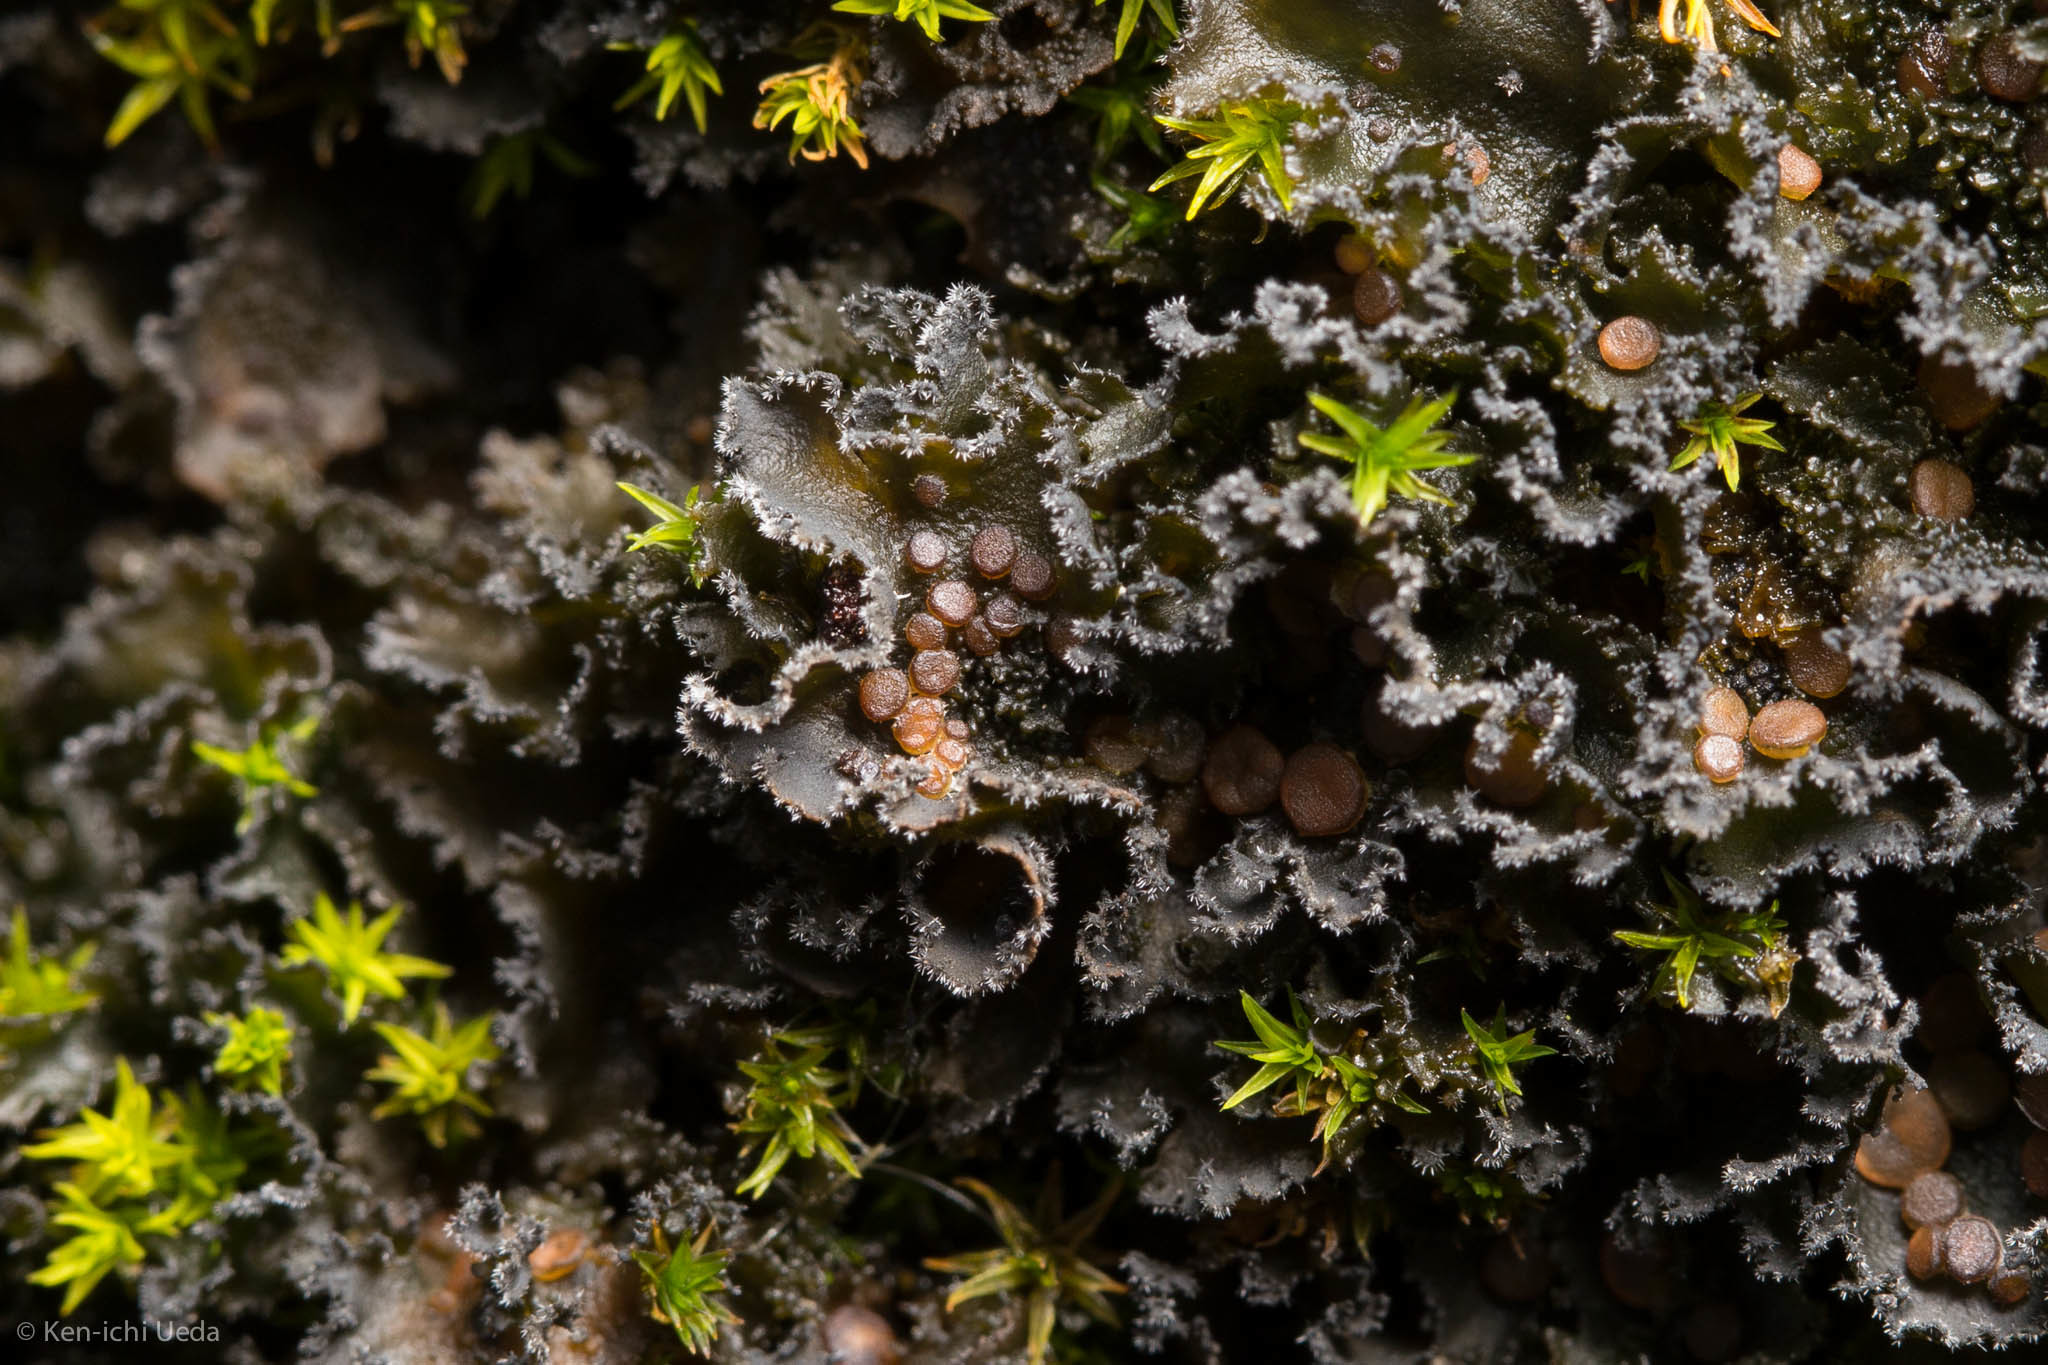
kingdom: Fungi
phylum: Ascomycota
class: Lecanoromycetes
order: Peltigerales
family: Massalongiaceae
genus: Leptochidium
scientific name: Leptochidium albociliatum
